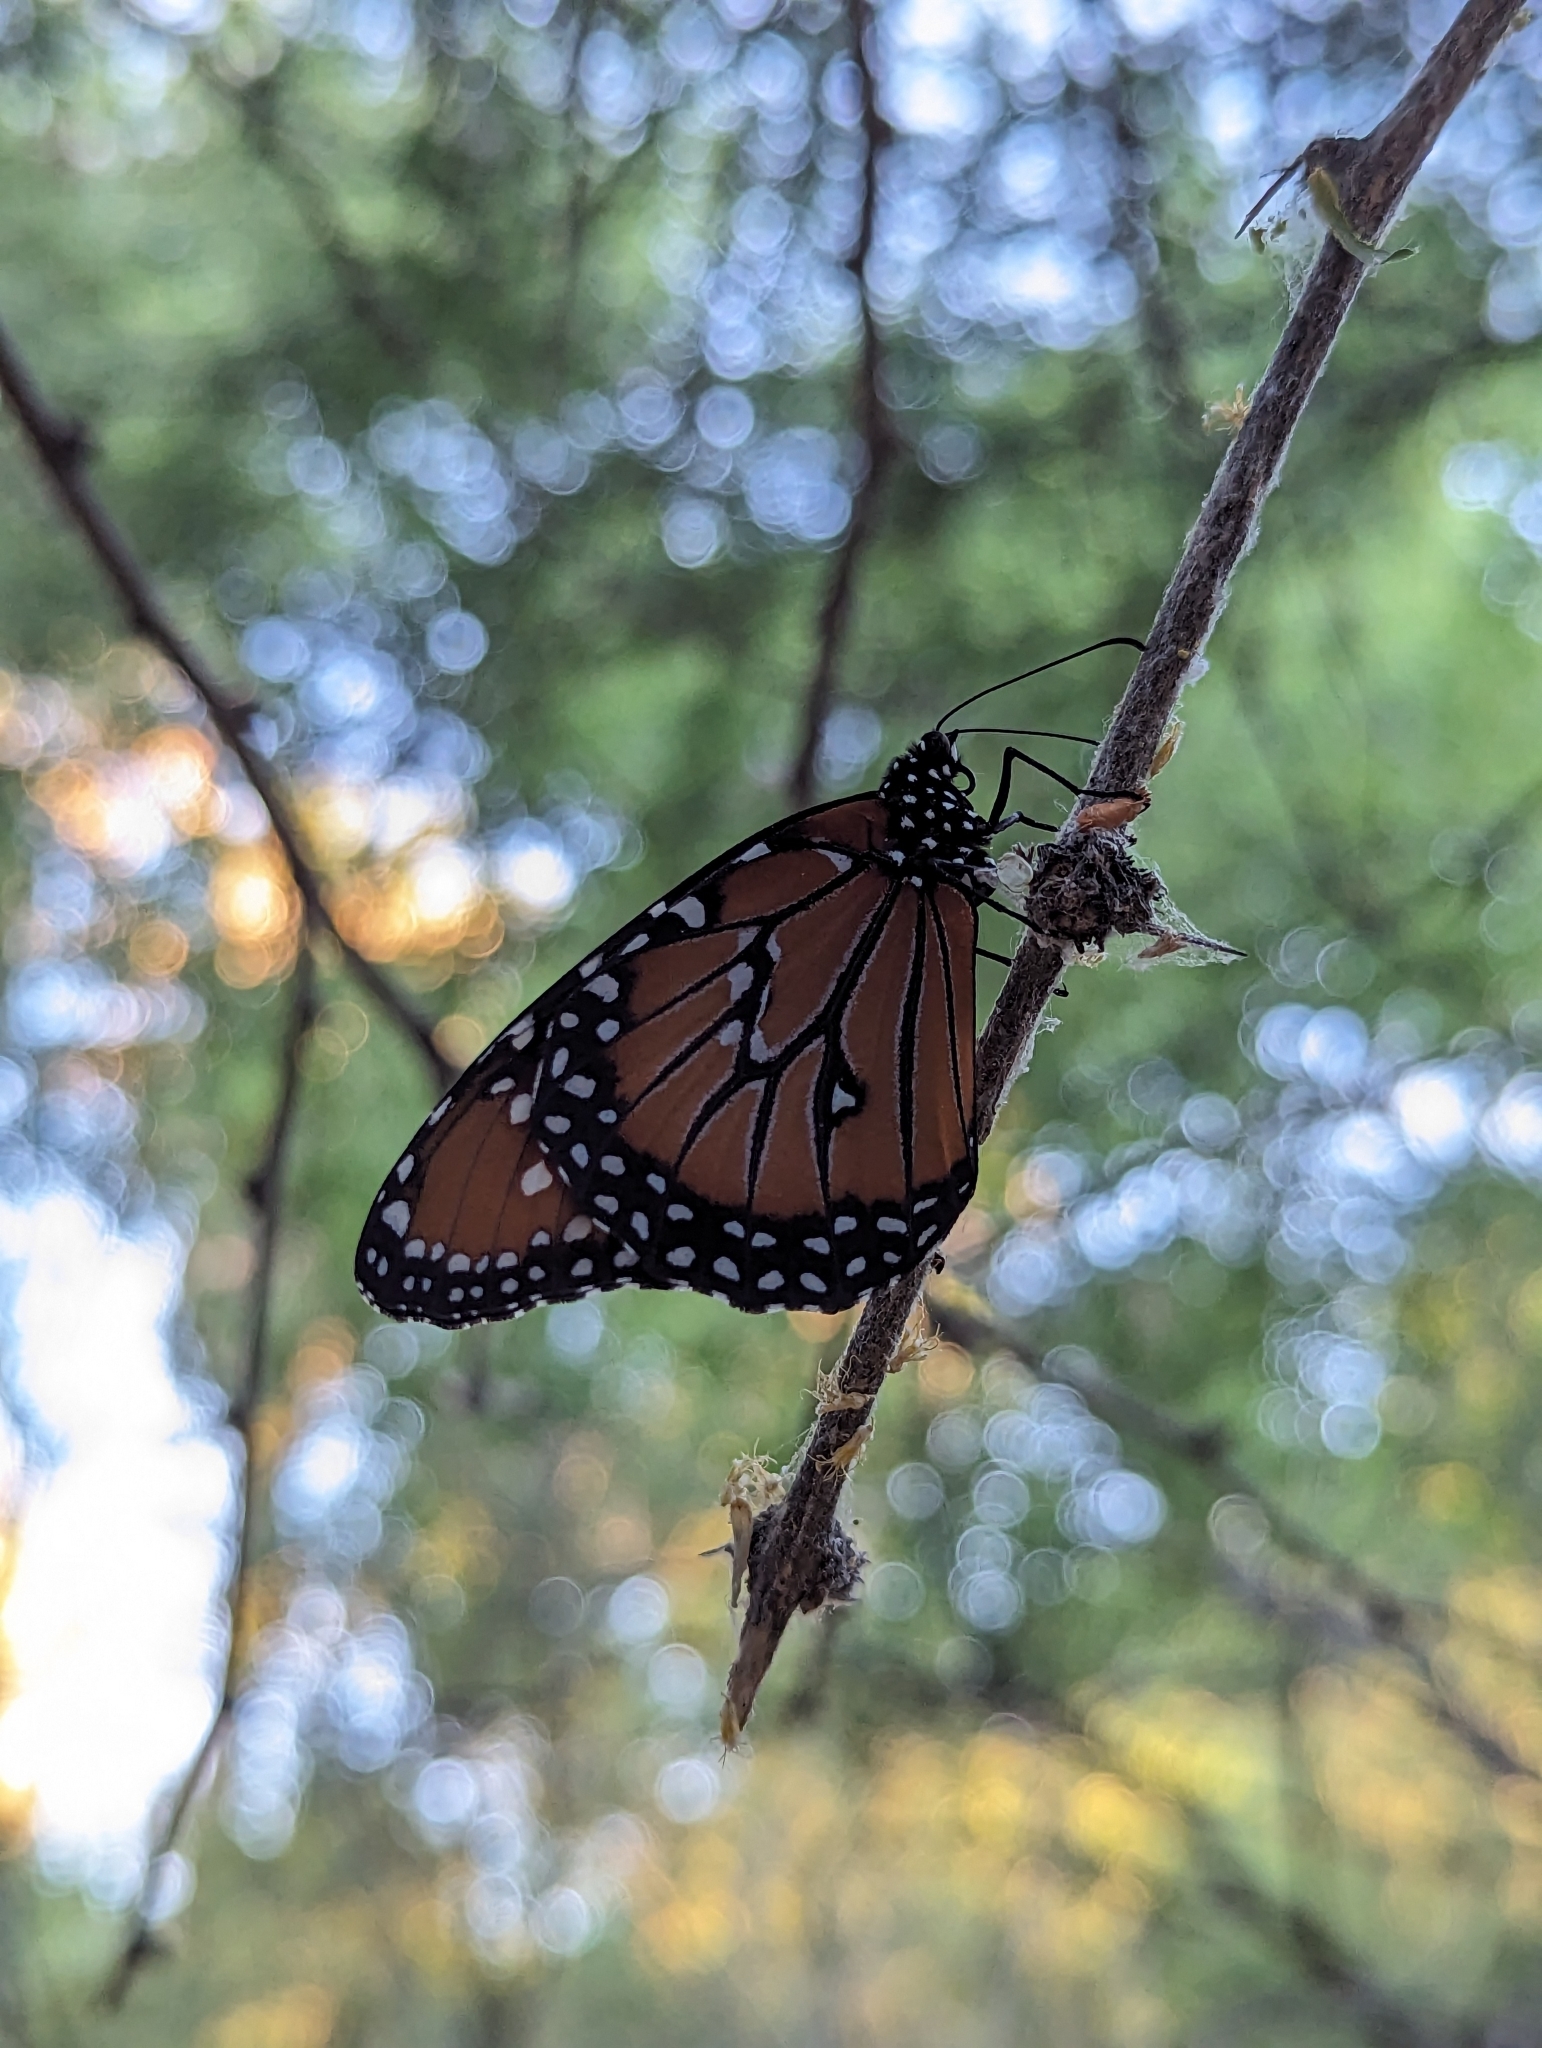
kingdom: Animalia
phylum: Arthropoda
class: Insecta
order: Lepidoptera
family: Nymphalidae
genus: Danaus
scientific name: Danaus gilippus
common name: Queen
